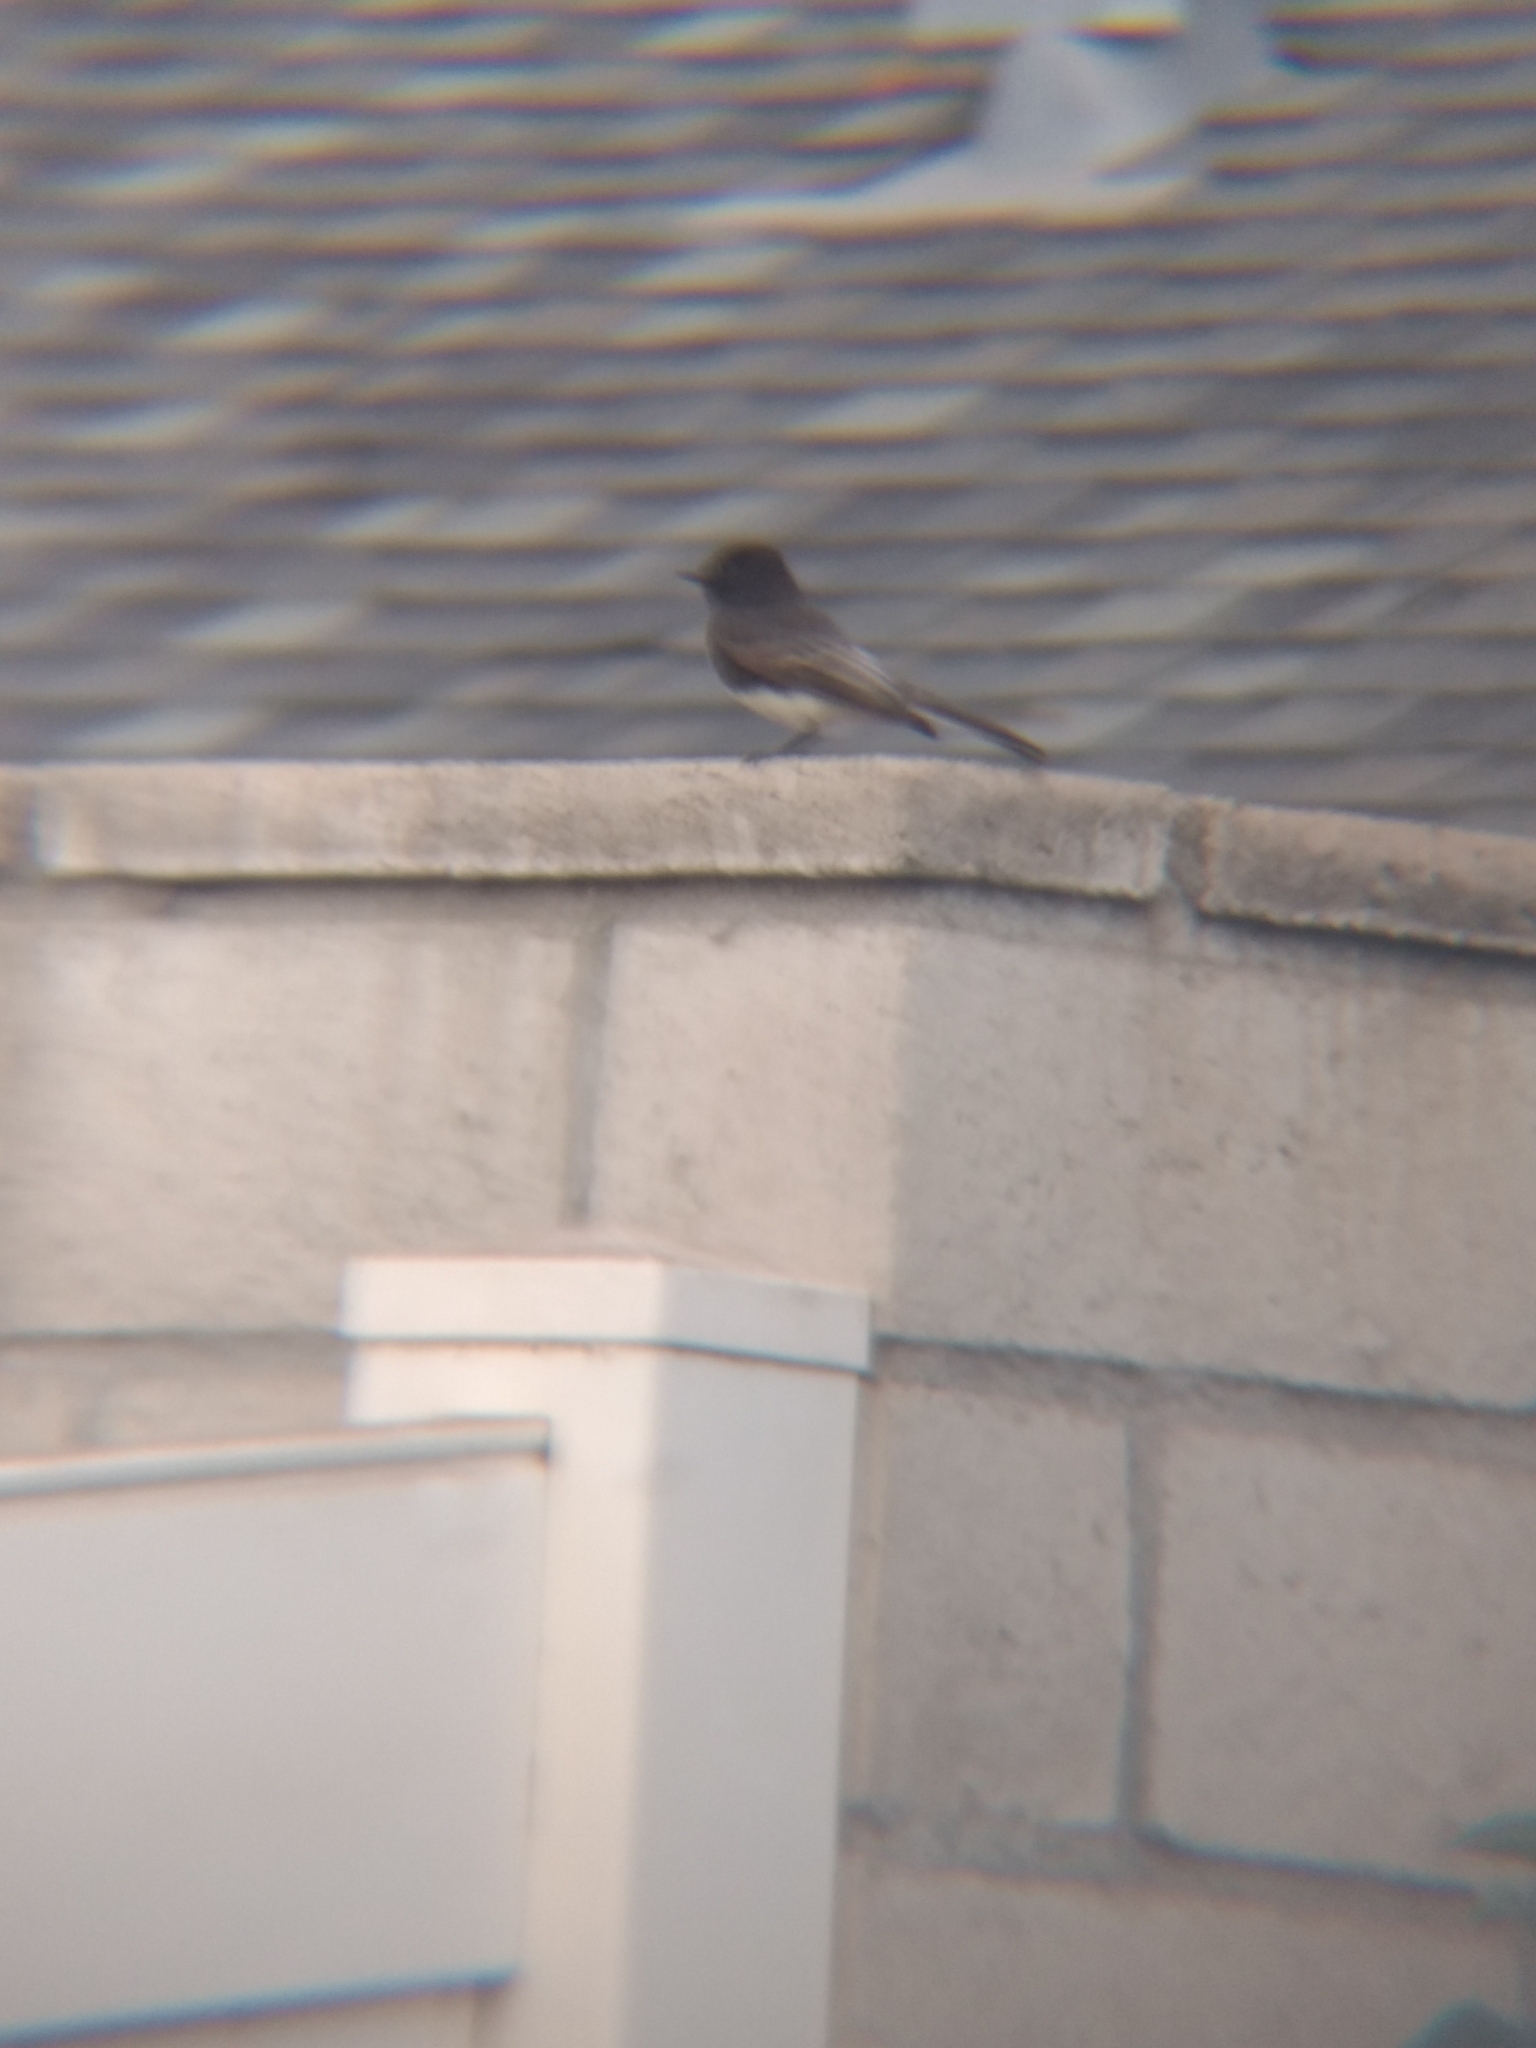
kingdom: Animalia
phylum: Chordata
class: Aves
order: Passeriformes
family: Tyrannidae
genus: Sayornis
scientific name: Sayornis nigricans
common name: Black phoebe
